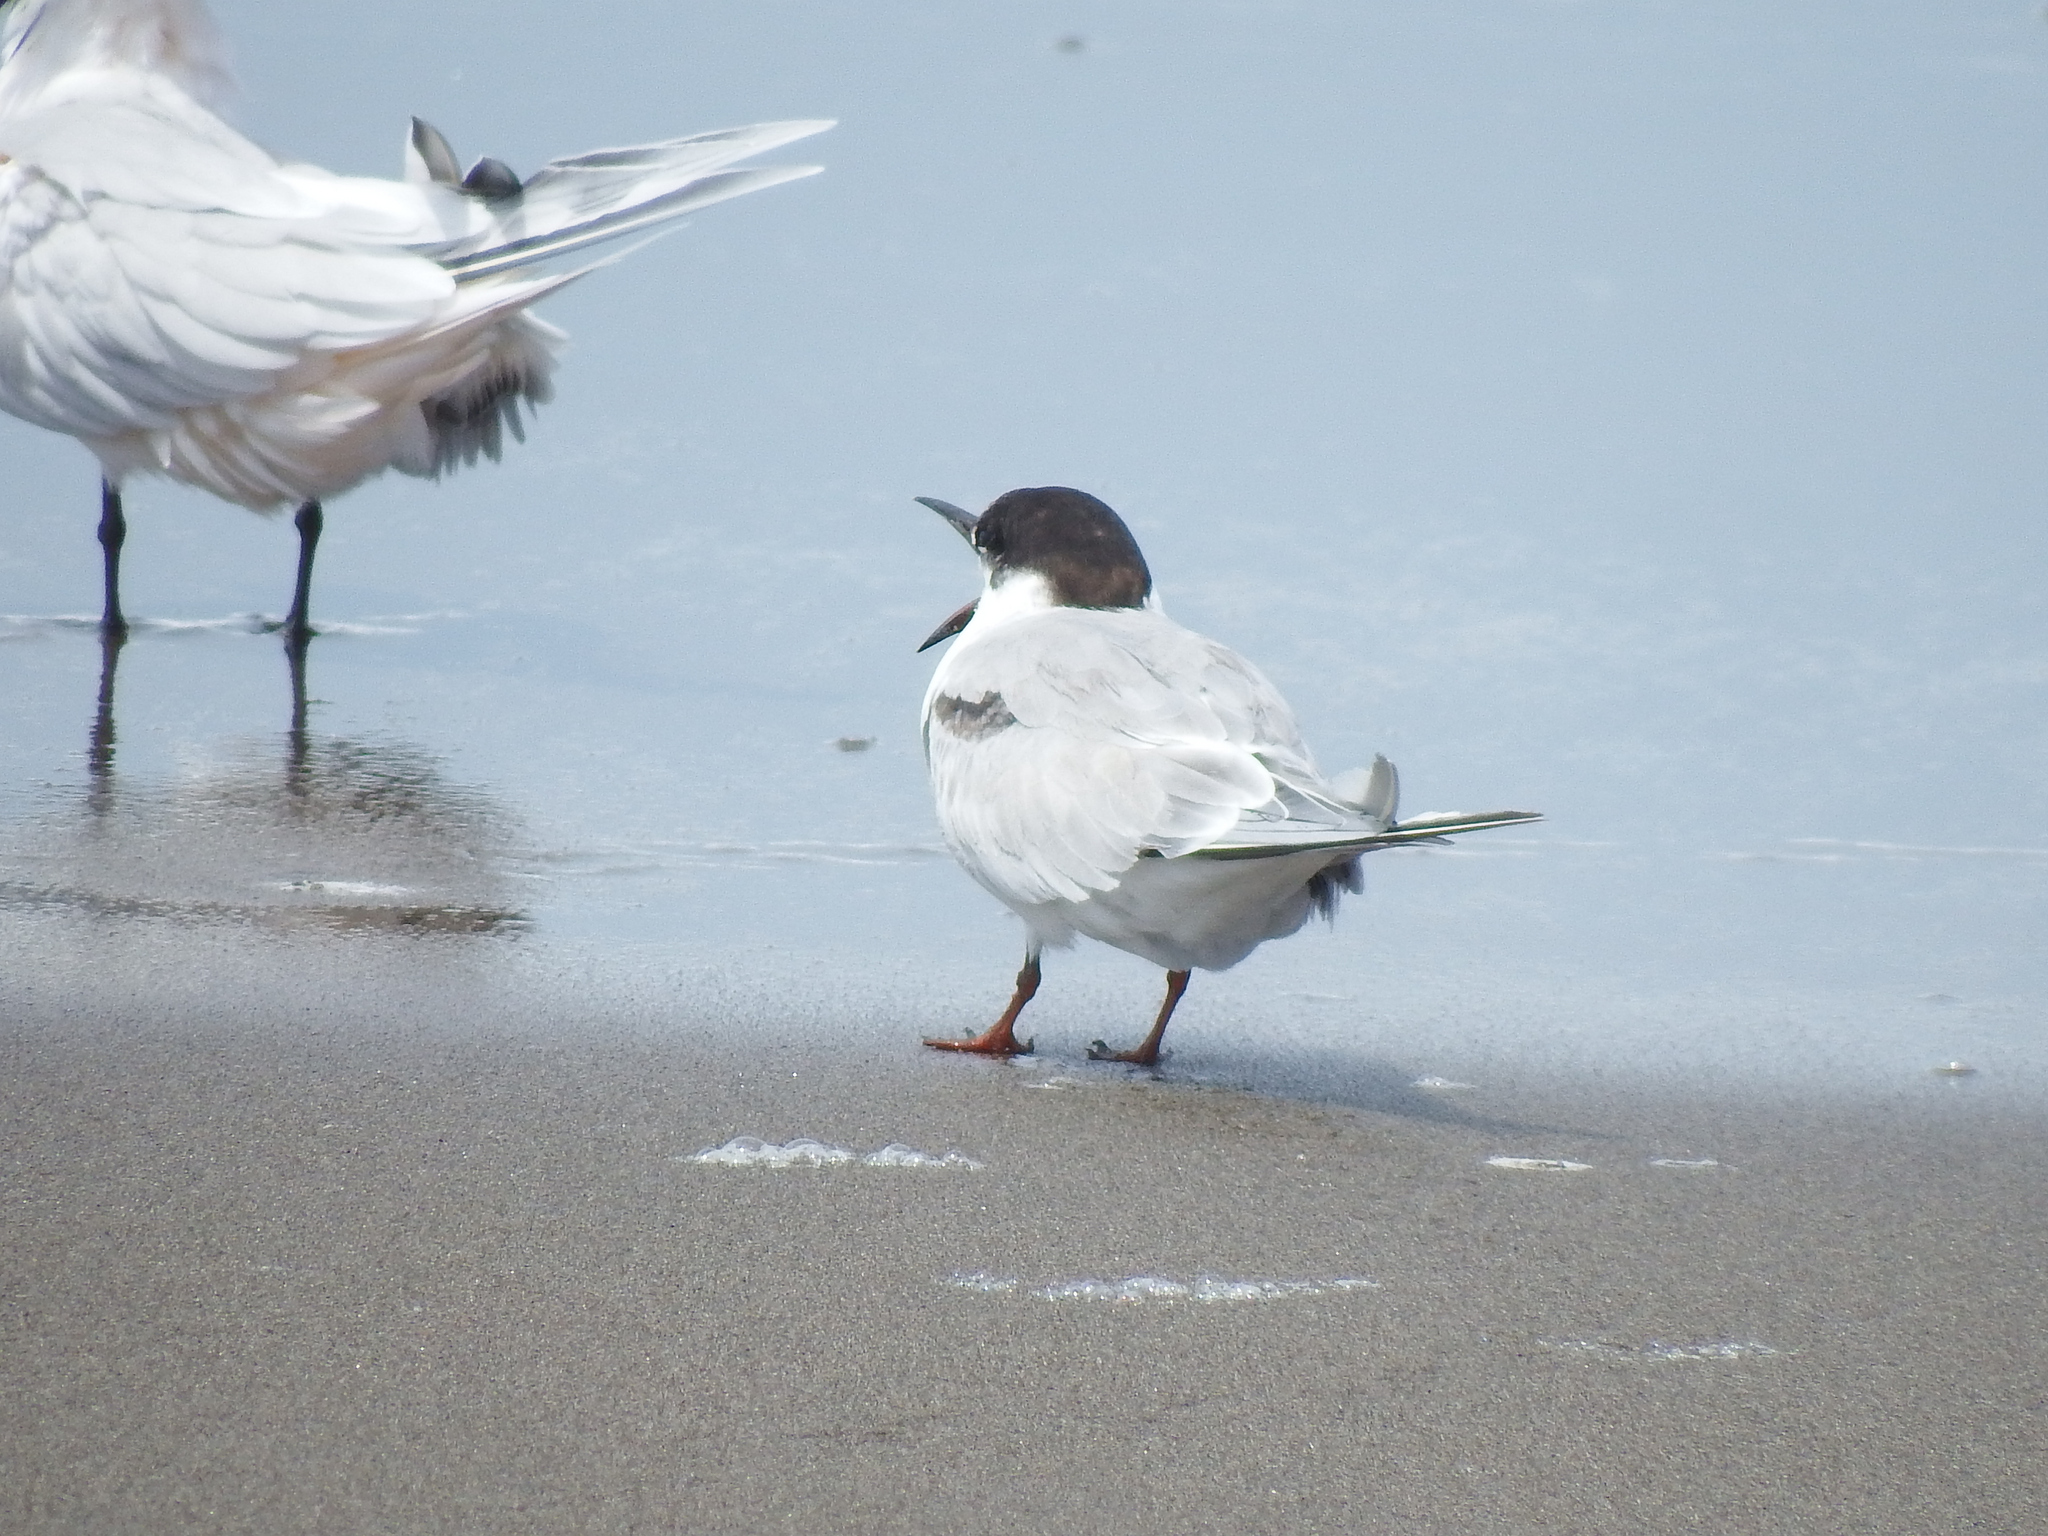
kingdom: Animalia
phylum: Chordata
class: Aves
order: Charadriiformes
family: Laridae
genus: Sterna
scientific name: Sterna hirundo
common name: Common tern
